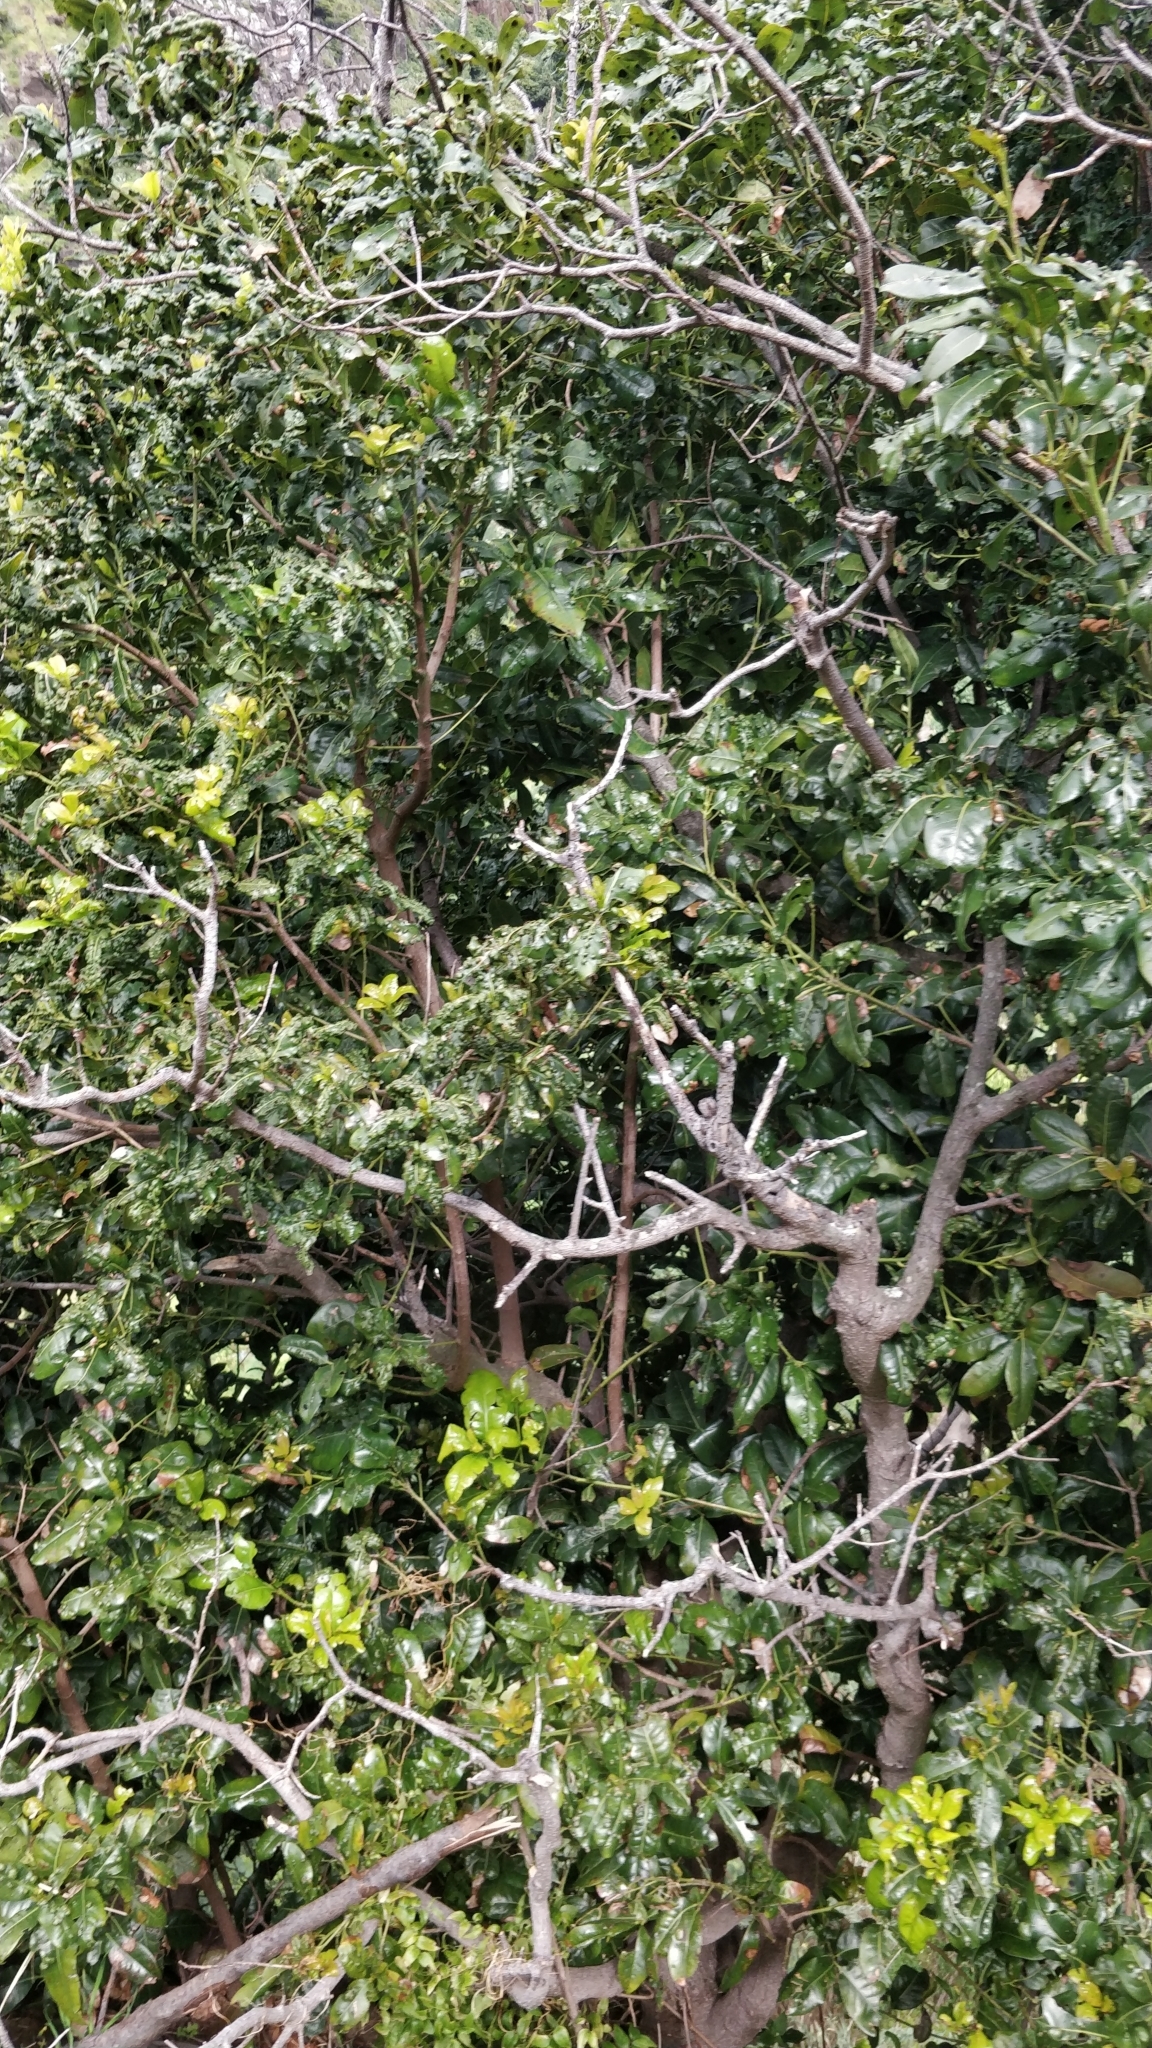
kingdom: Plantae
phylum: Tracheophyta
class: Magnoliopsida
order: Laurales
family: Lauraceae
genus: Apollonias
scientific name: Apollonias barbujana
